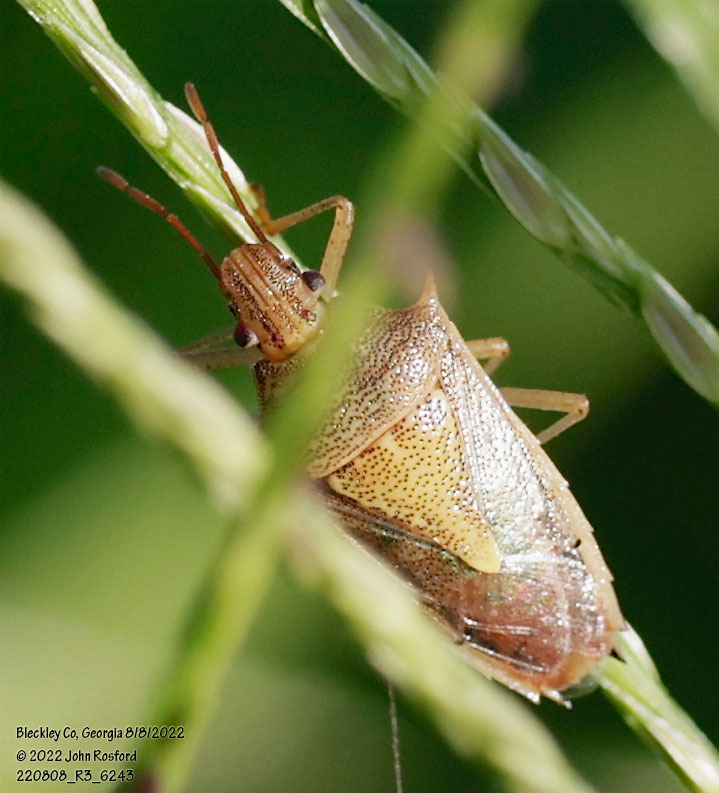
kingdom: Animalia
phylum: Arthropoda
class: Insecta
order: Hemiptera
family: Pentatomidae
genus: Oebalus
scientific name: Oebalus pugnax
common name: Rice stink bug
